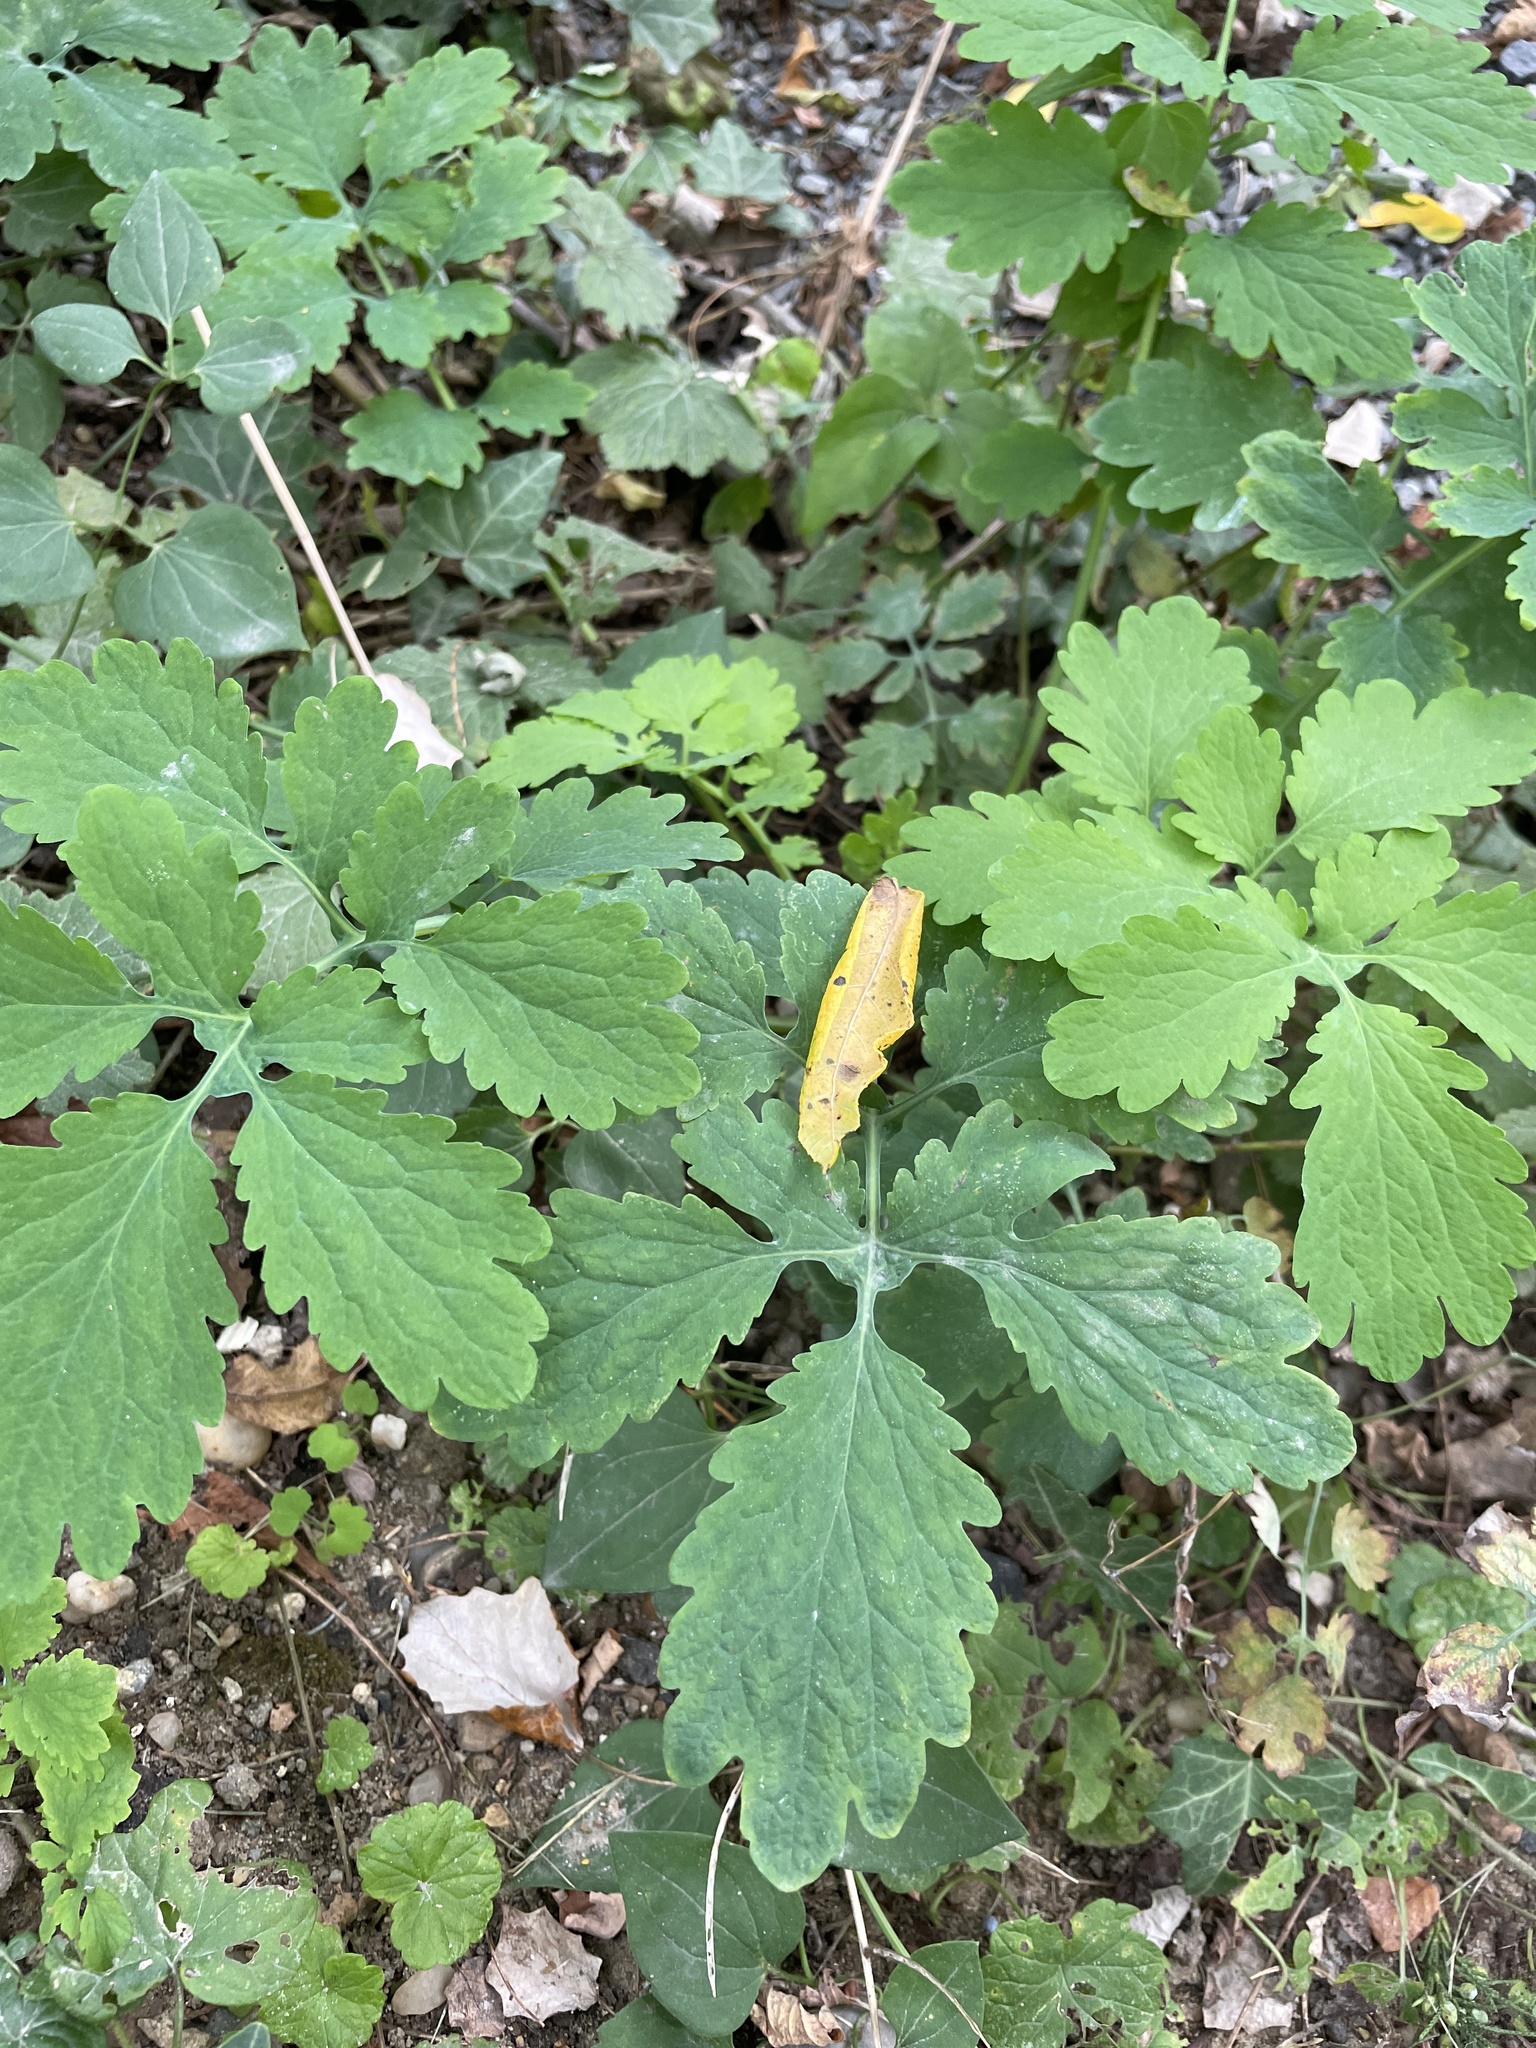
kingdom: Plantae
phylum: Tracheophyta
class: Magnoliopsida
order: Ranunculales
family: Papaveraceae
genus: Chelidonium
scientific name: Chelidonium majus
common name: Greater celandine
